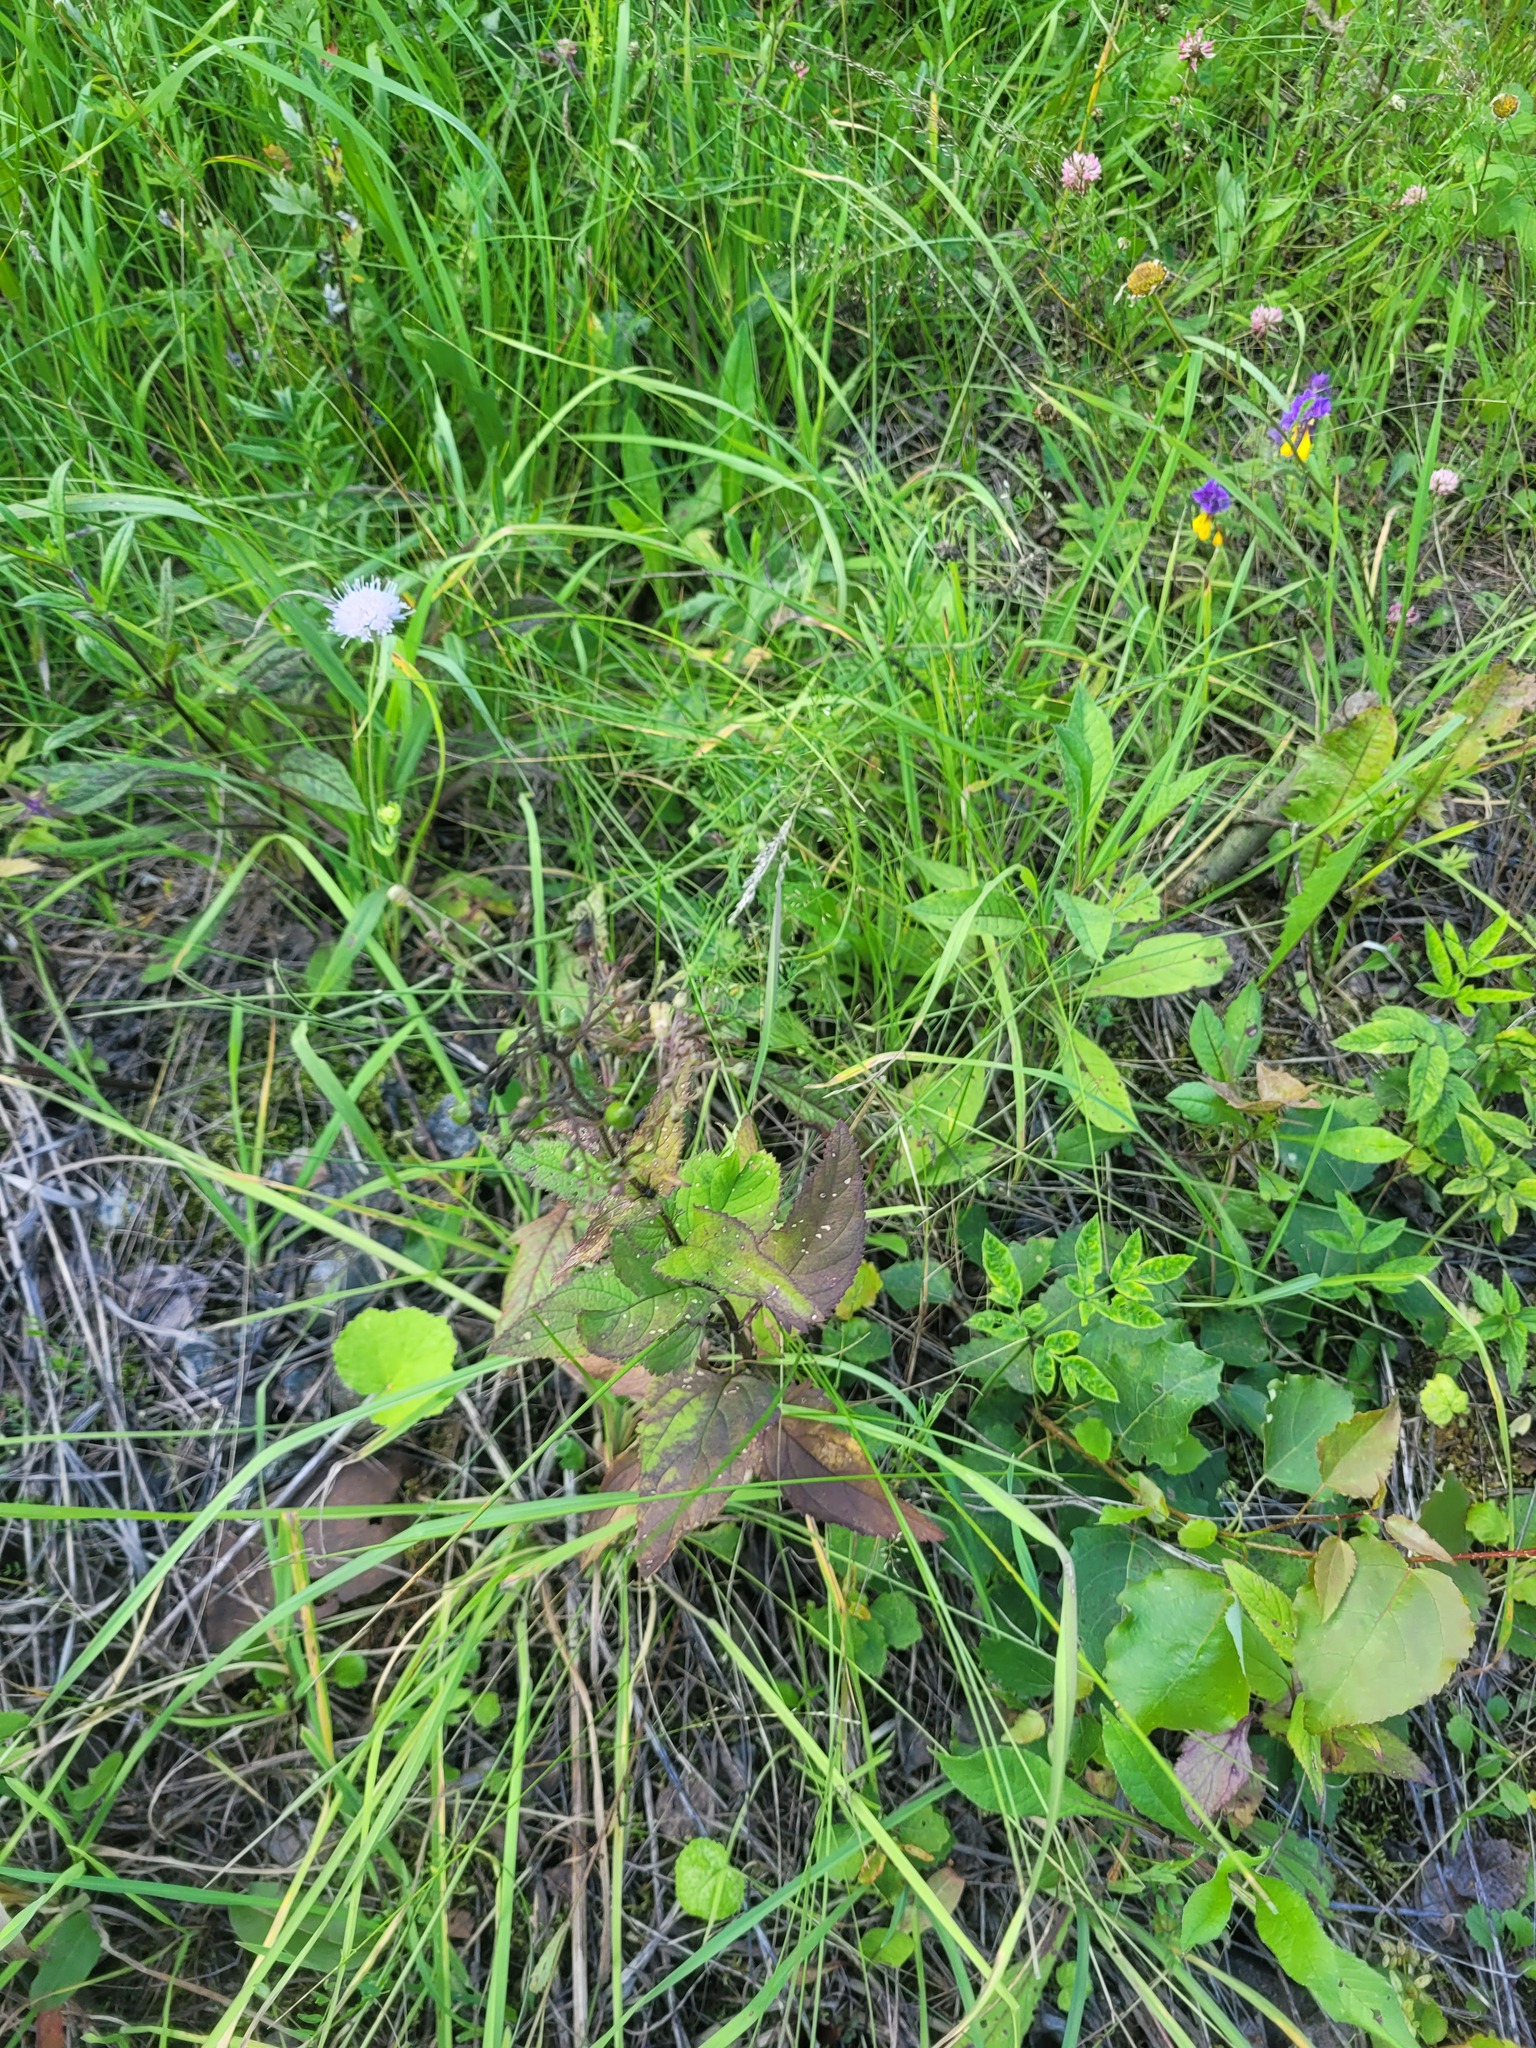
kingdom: Plantae
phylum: Tracheophyta
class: Magnoliopsida
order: Lamiales
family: Scrophulariaceae
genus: Scrophularia
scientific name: Scrophularia nodosa
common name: Common figwort
